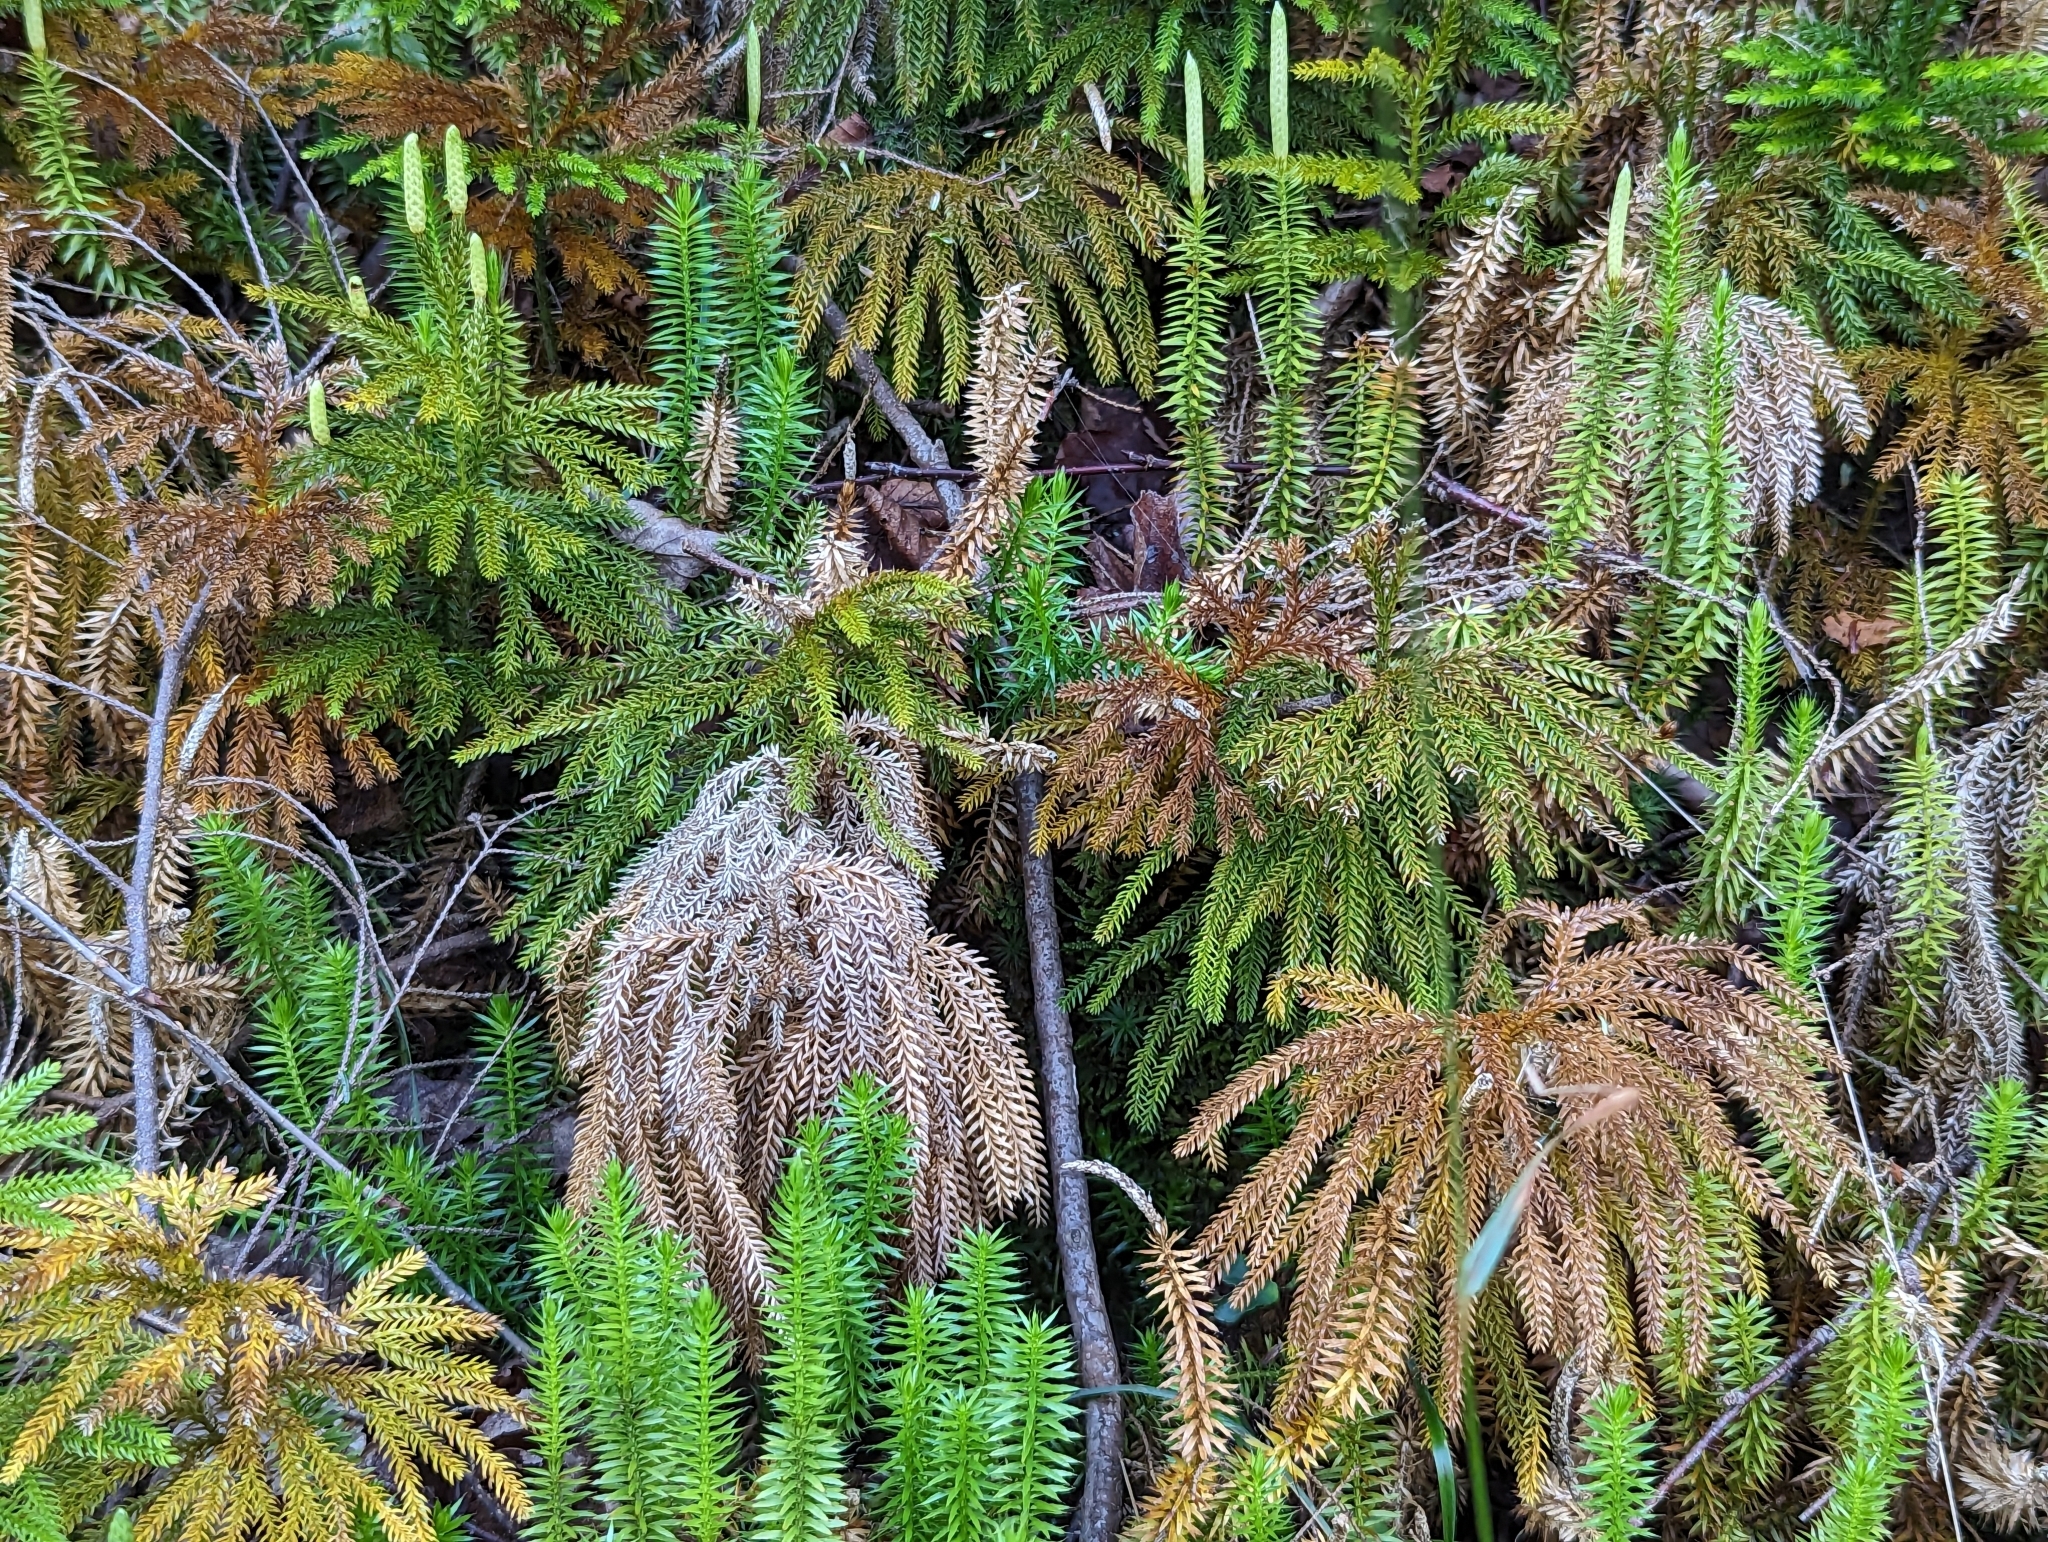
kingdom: Plantae
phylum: Tracheophyta
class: Lycopodiopsida
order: Lycopodiales
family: Lycopodiaceae
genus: Lycopodium
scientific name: Lycopodium clavatum
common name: Stag's-horn clubmoss
